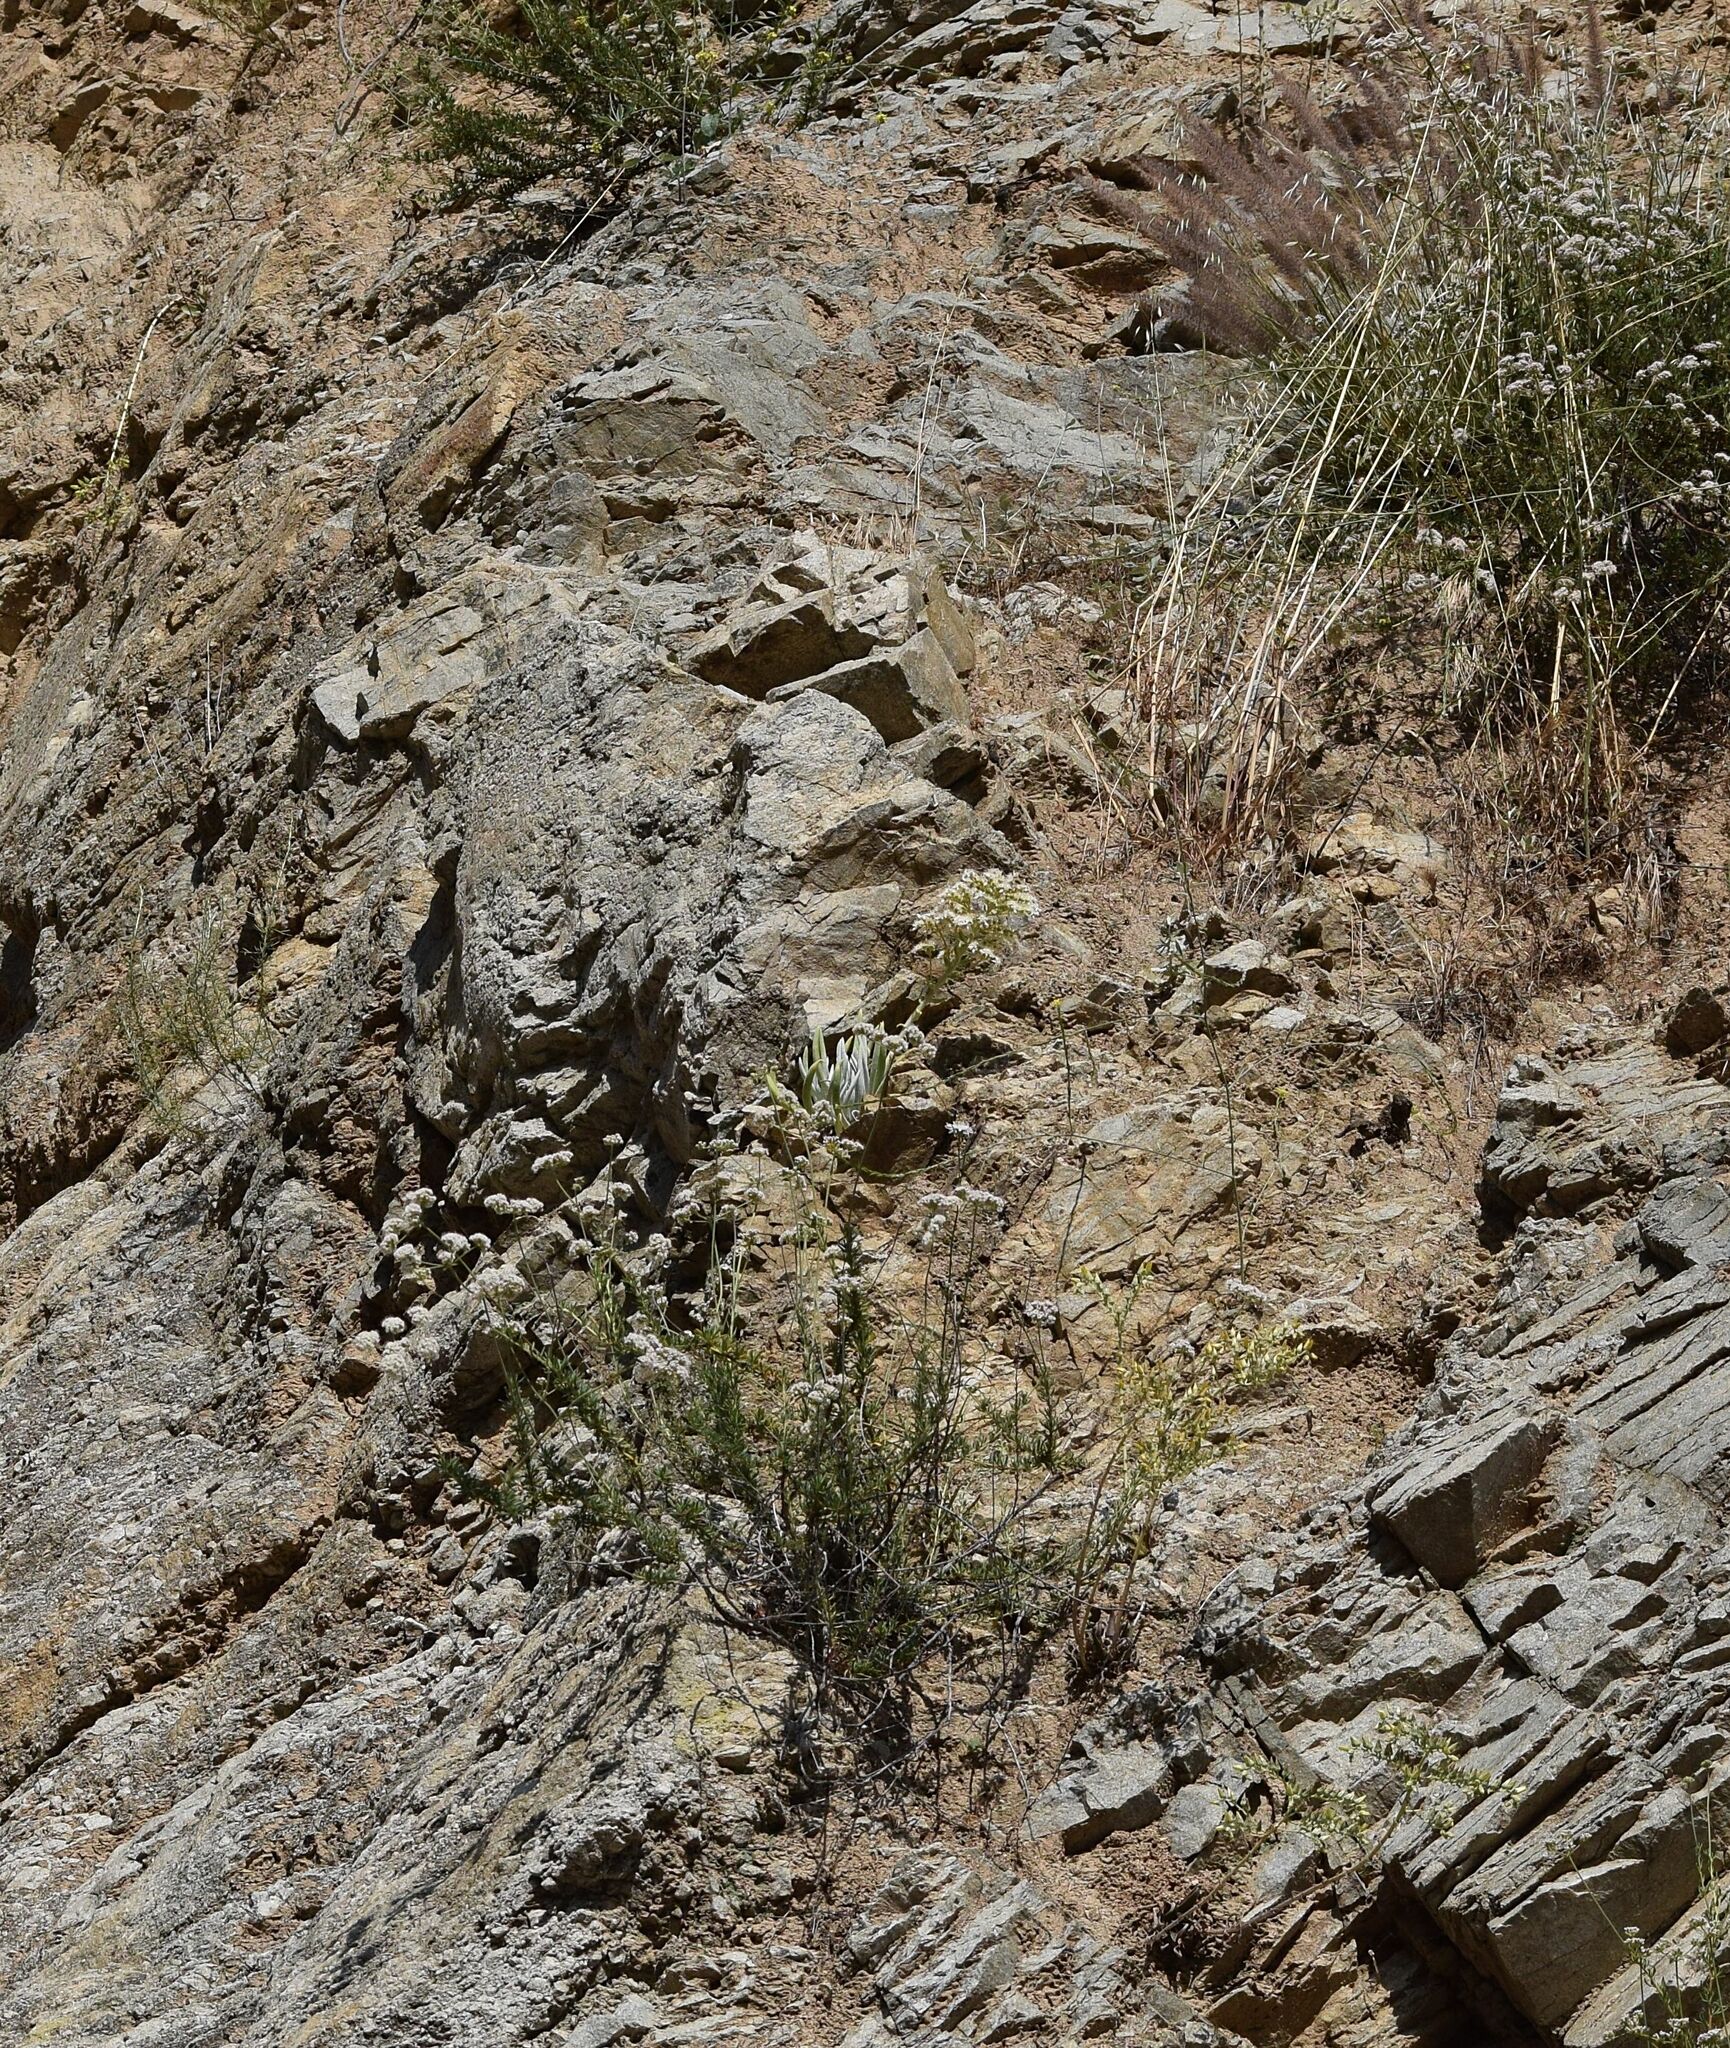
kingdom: Plantae
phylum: Tracheophyta
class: Magnoliopsida
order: Saxifragales
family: Crassulaceae
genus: Dudleya
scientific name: Dudleya densiflora
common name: San gabriel mountains dudleya
